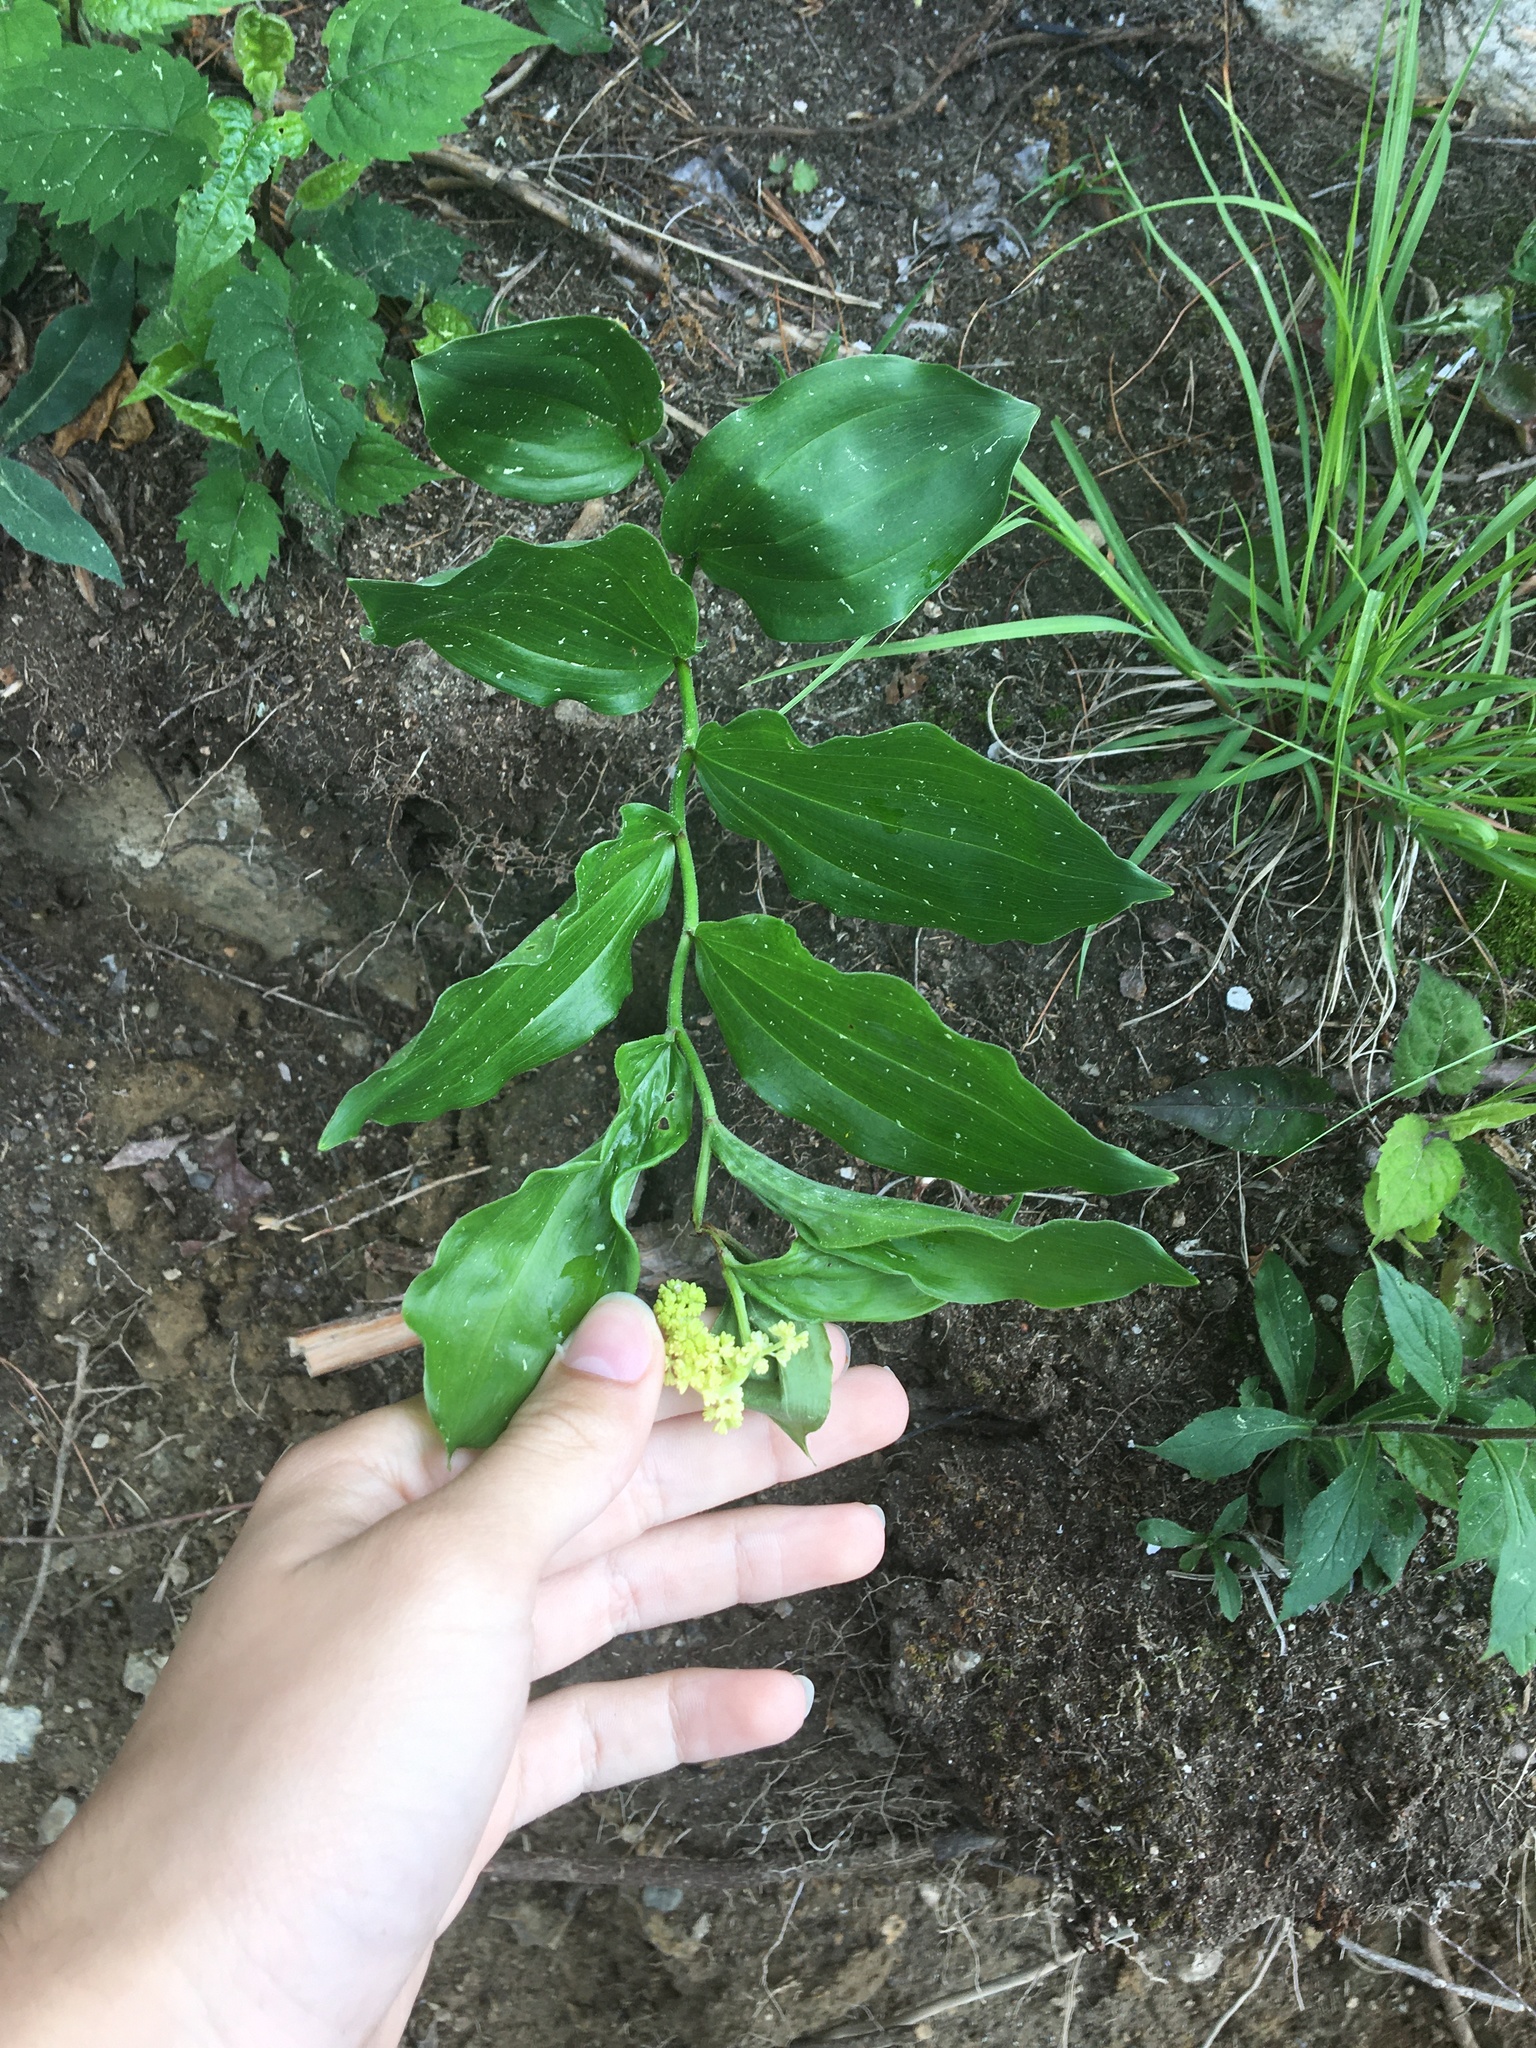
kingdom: Plantae
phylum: Tracheophyta
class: Liliopsida
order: Asparagales
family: Asparagaceae
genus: Maianthemum
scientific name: Maianthemum racemosum
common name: False spikenard
